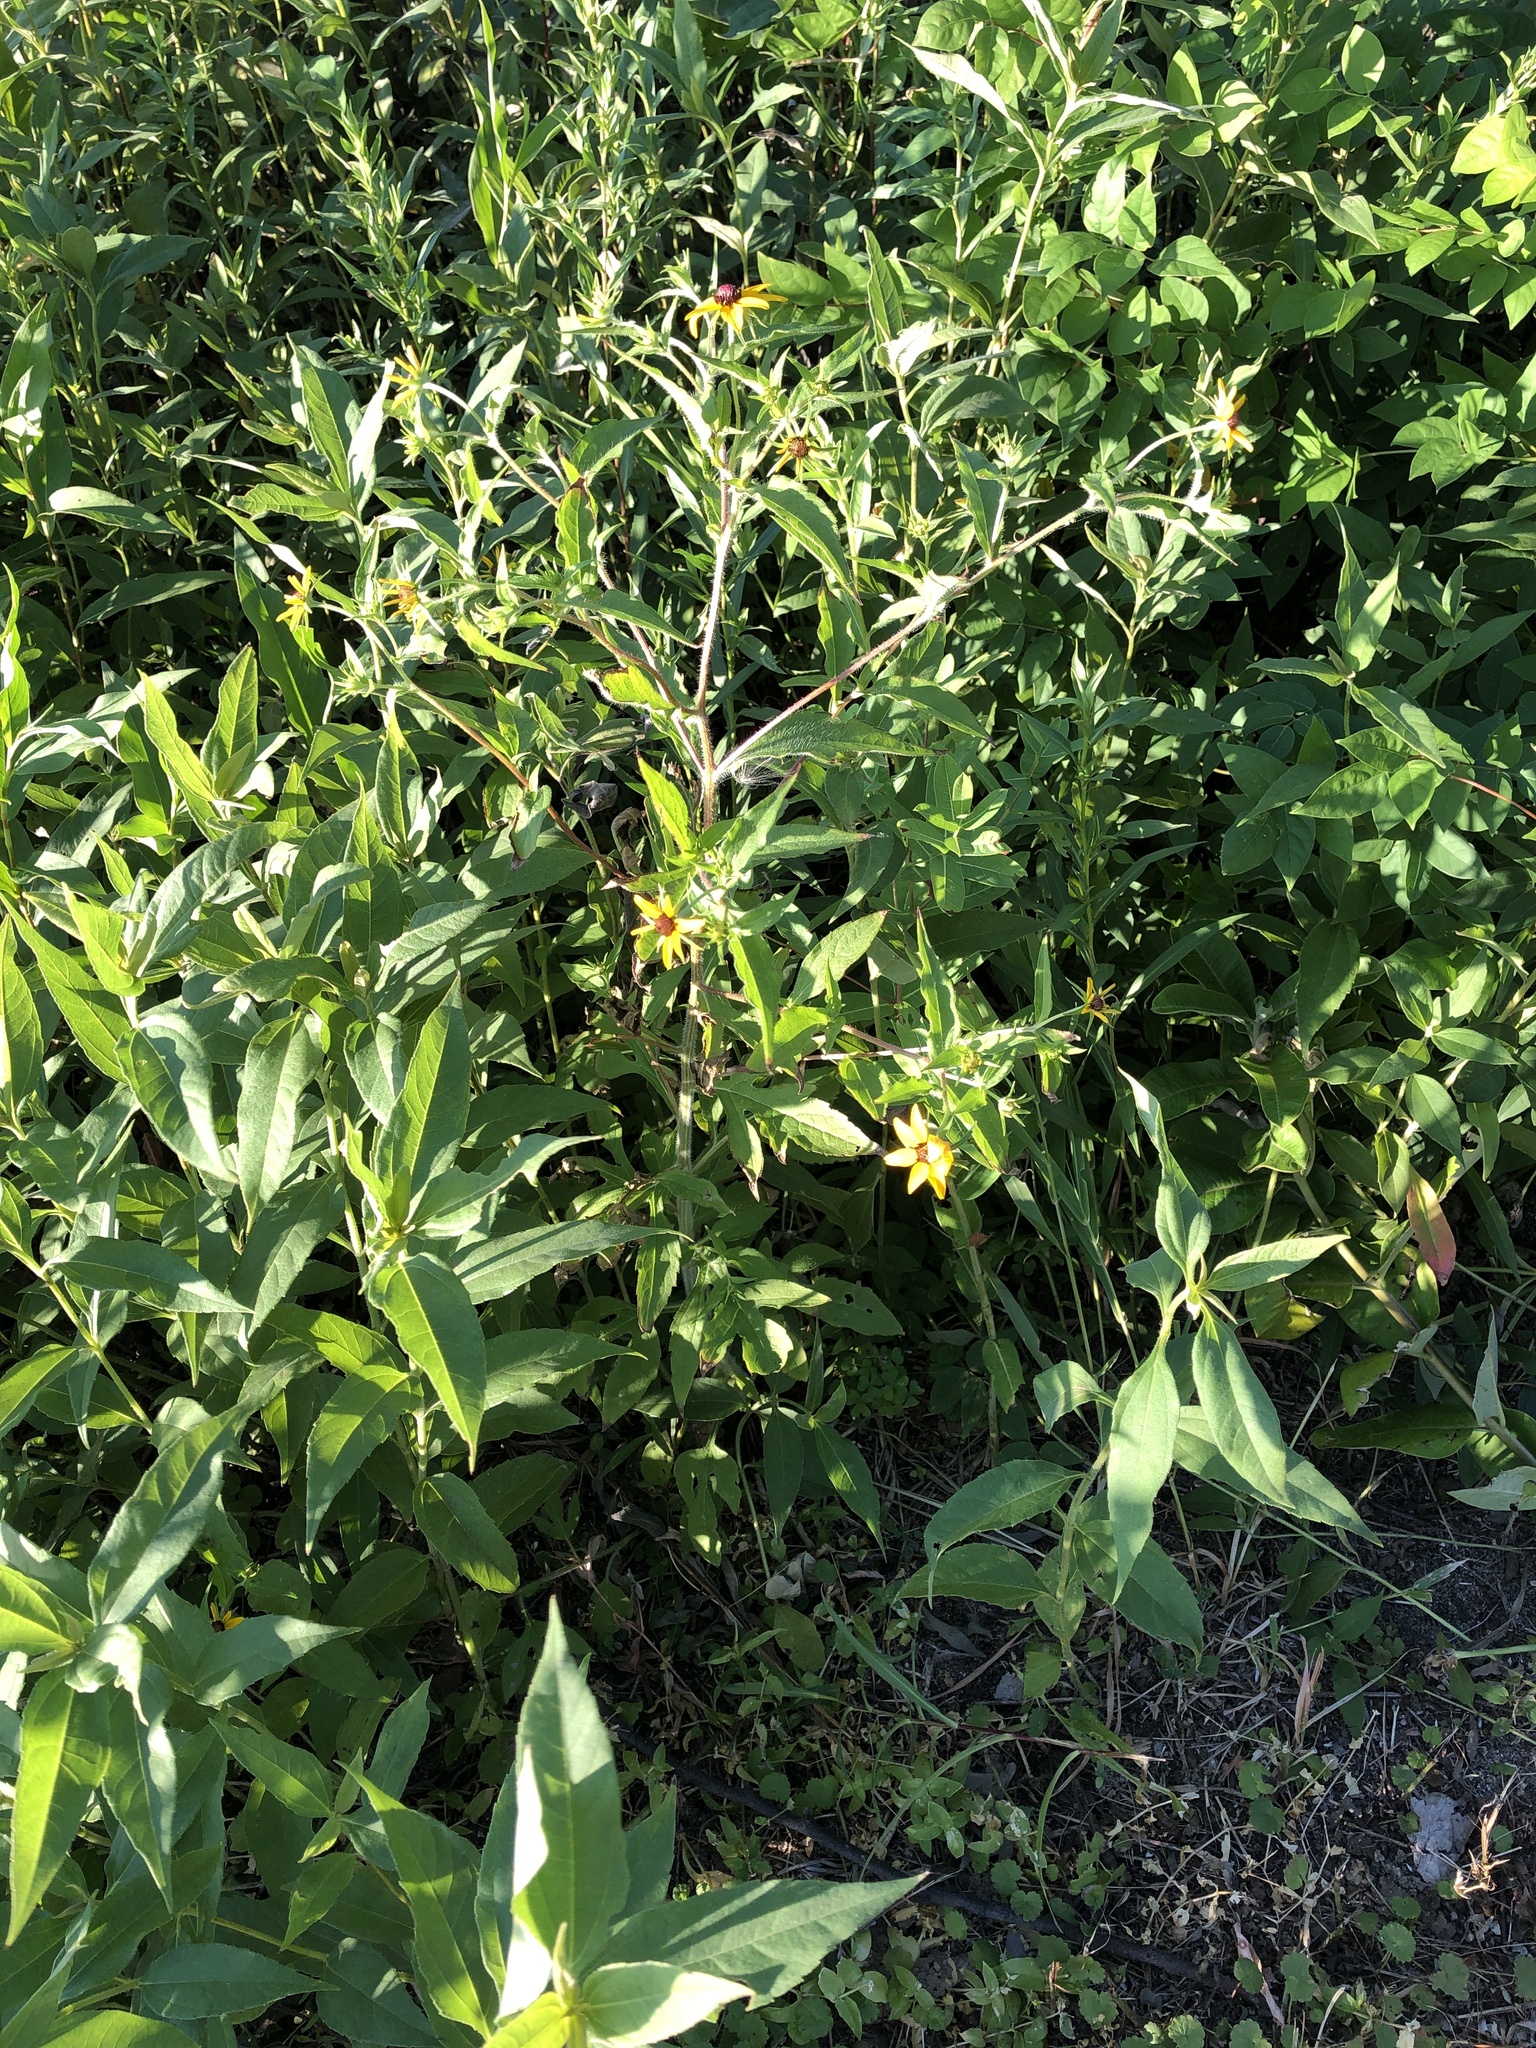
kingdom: Plantae
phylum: Tracheophyta
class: Magnoliopsida
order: Asterales
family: Asteraceae
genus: Rudbeckia
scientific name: Rudbeckia triloba
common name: Thin-leaved coneflower
